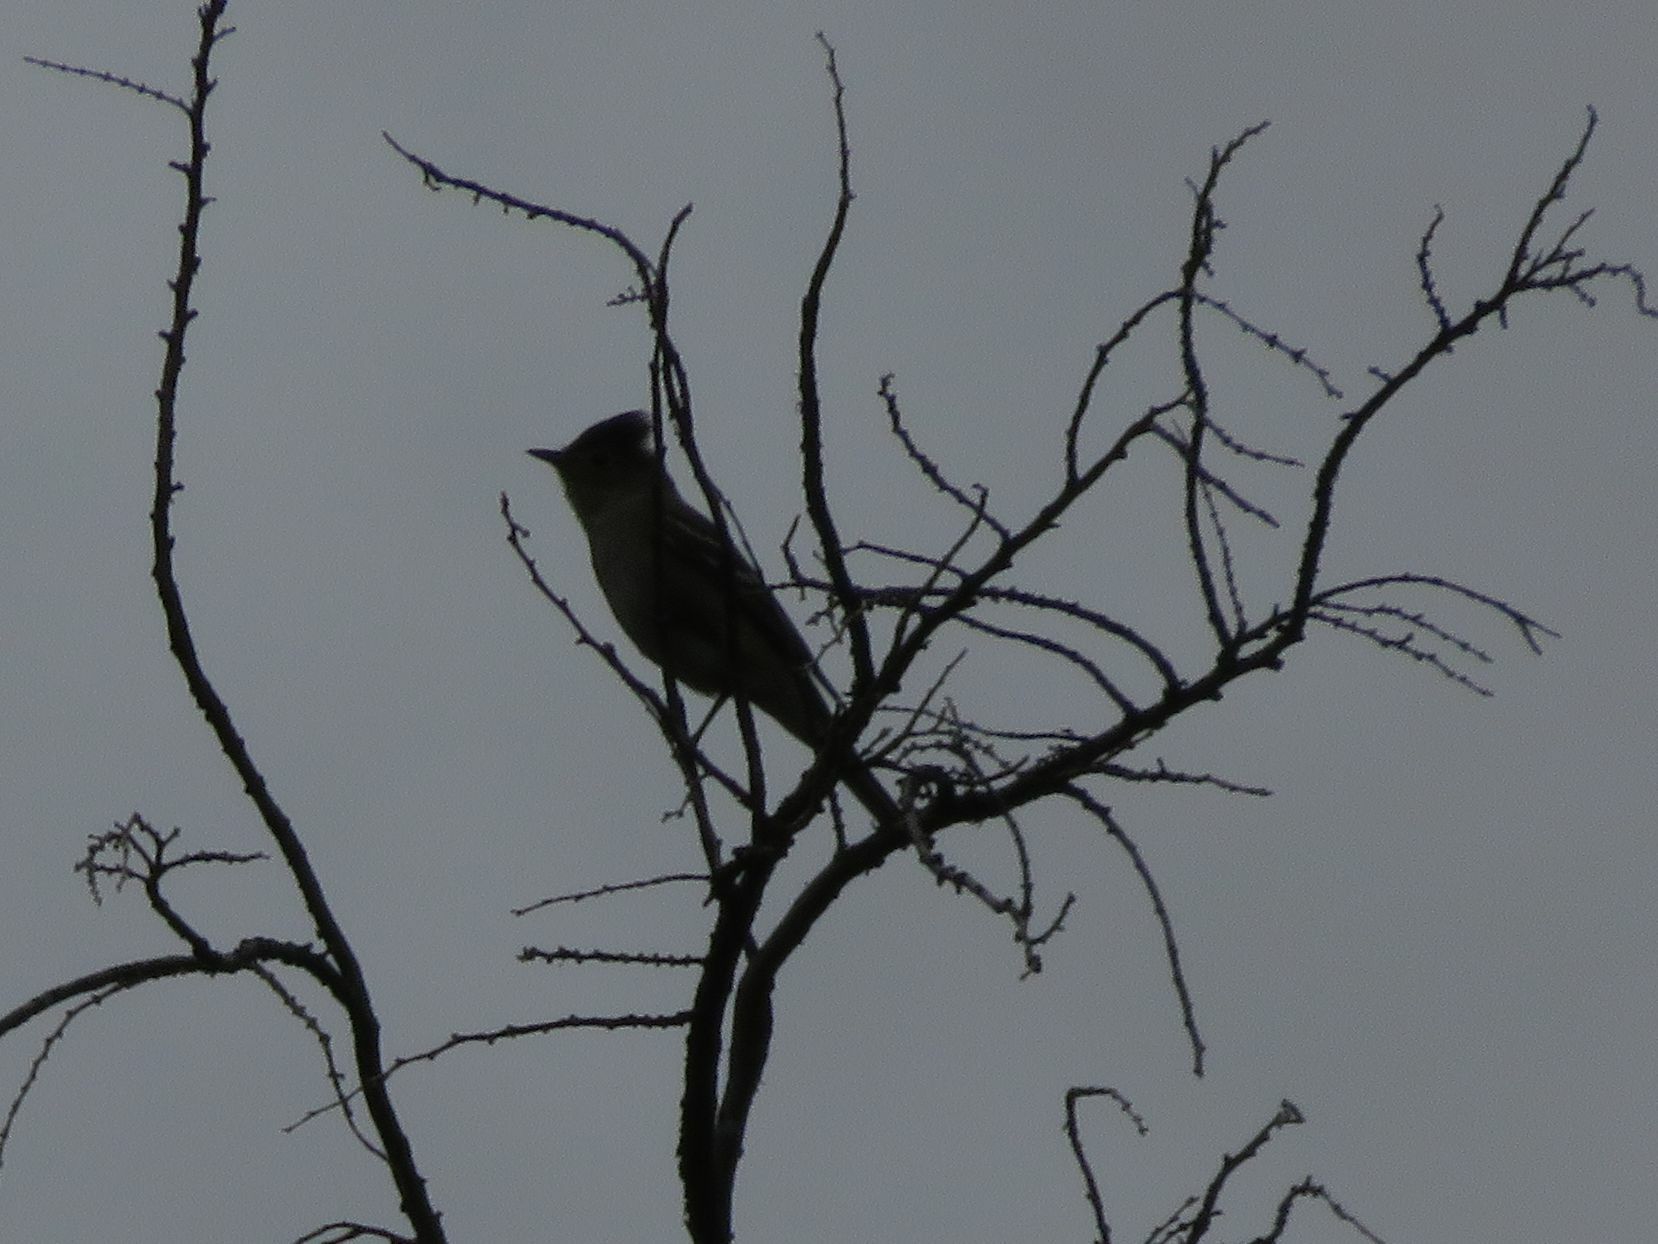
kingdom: Animalia
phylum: Chordata
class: Aves
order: Passeriformes
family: Tyrannidae
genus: Elaenia
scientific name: Elaenia albiceps
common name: White-crested elaenia
